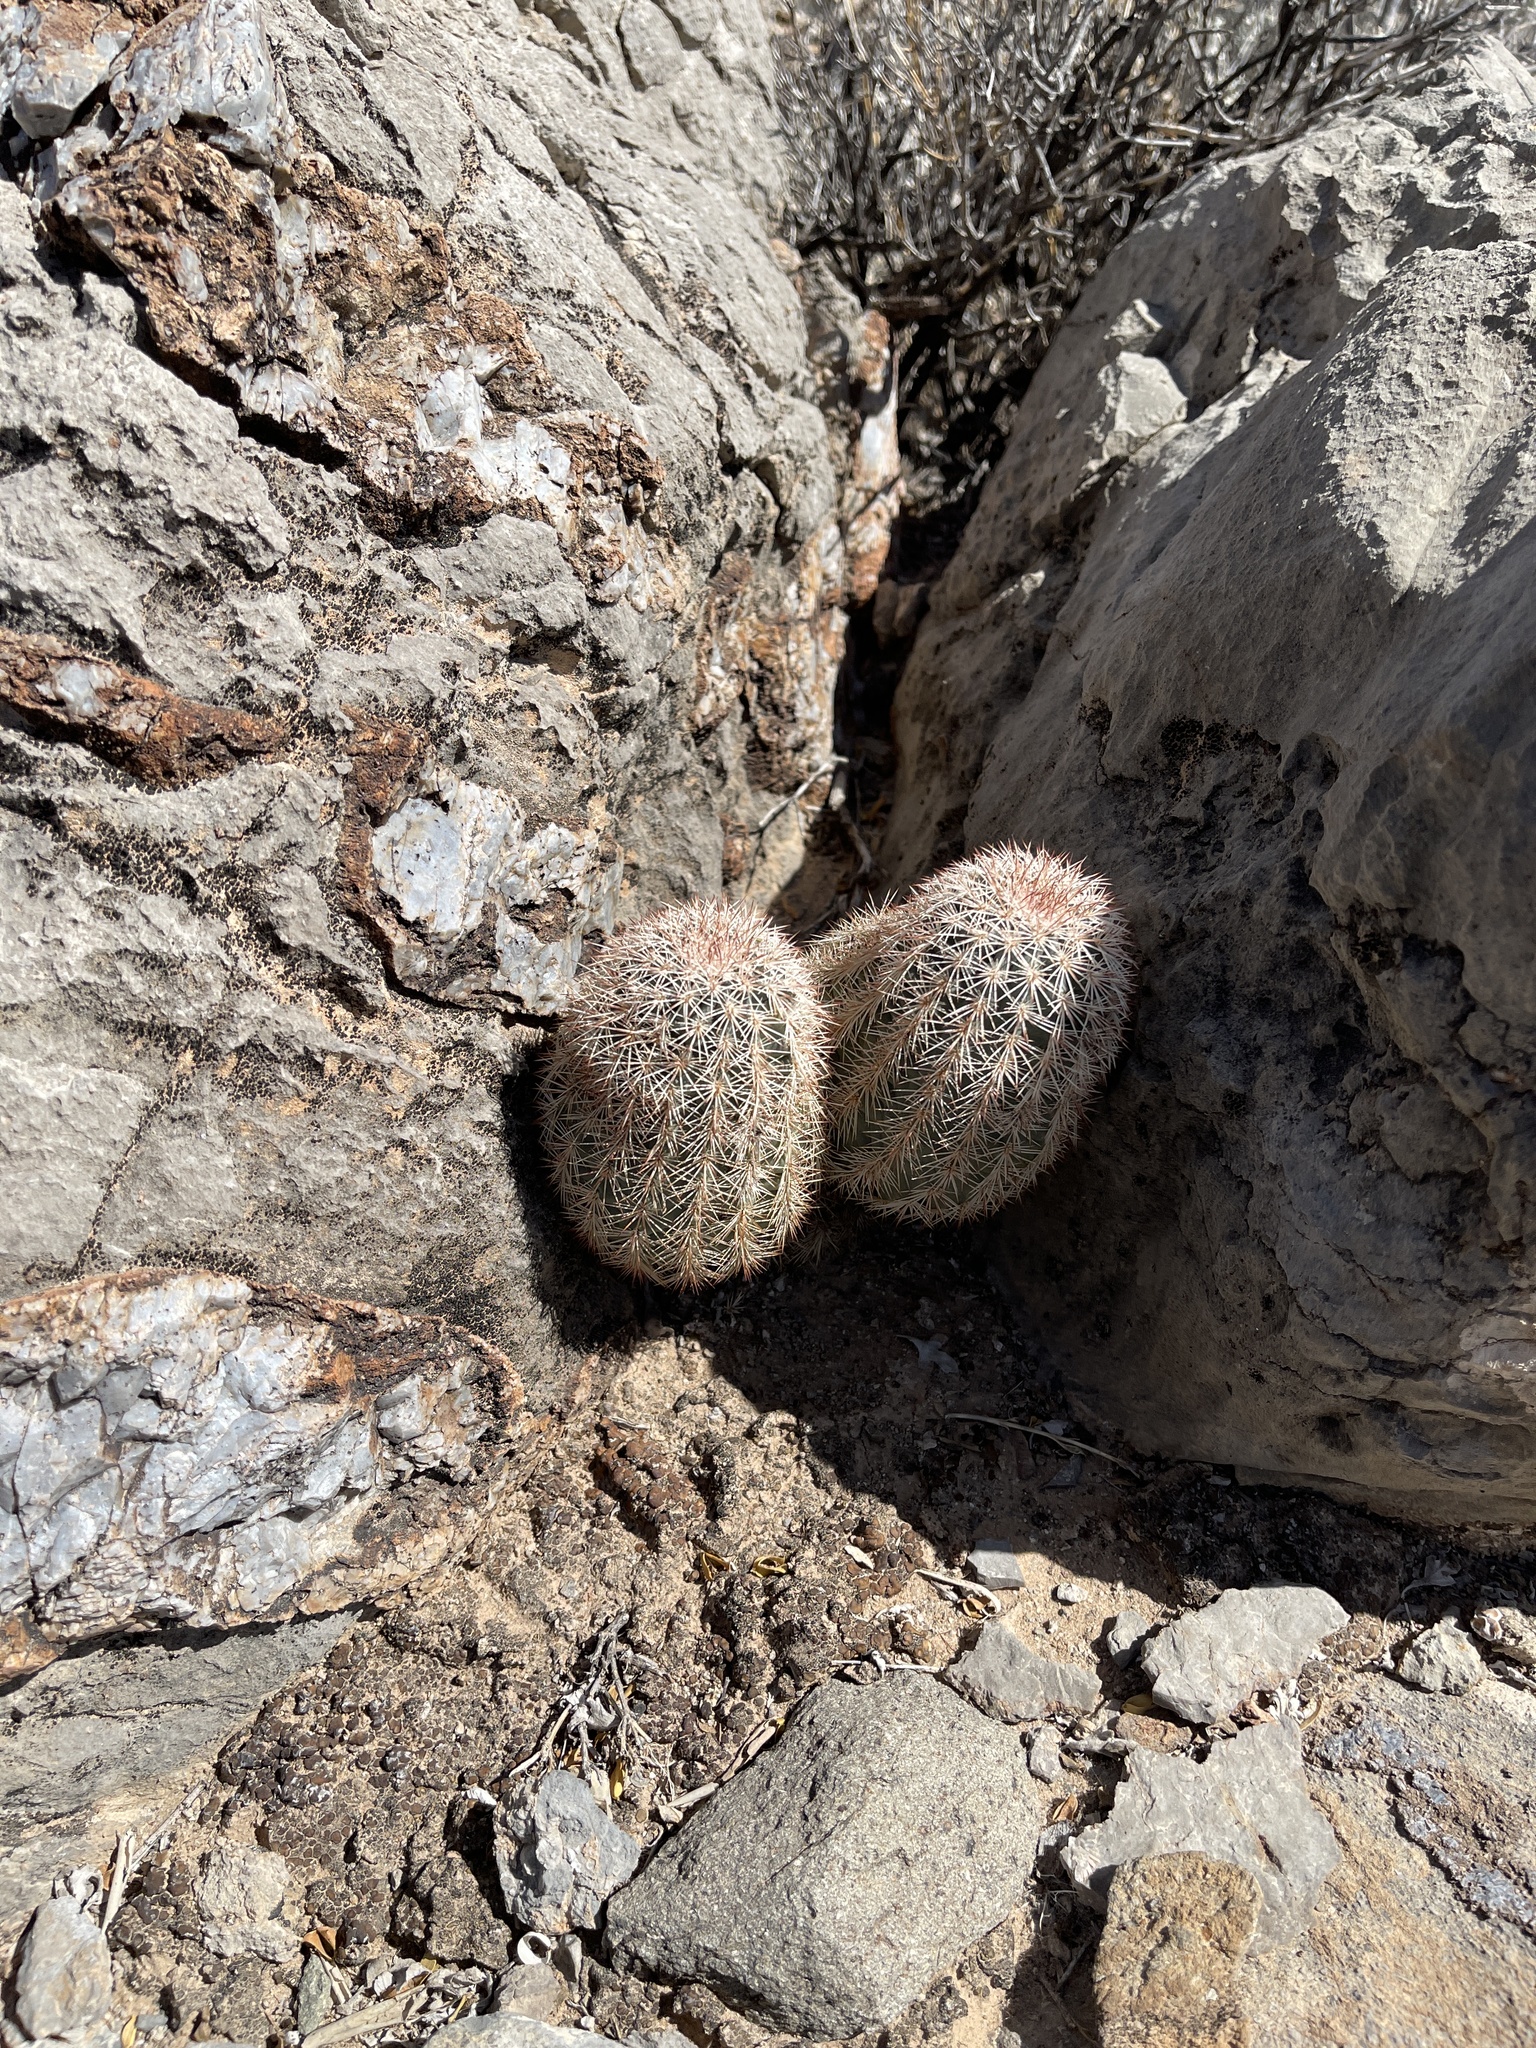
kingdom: Plantae
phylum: Tracheophyta
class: Magnoliopsida
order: Caryophyllales
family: Cactaceae
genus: Echinocereus
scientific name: Echinocereus dasyacanthus
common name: Spiny hedgehog cactus
